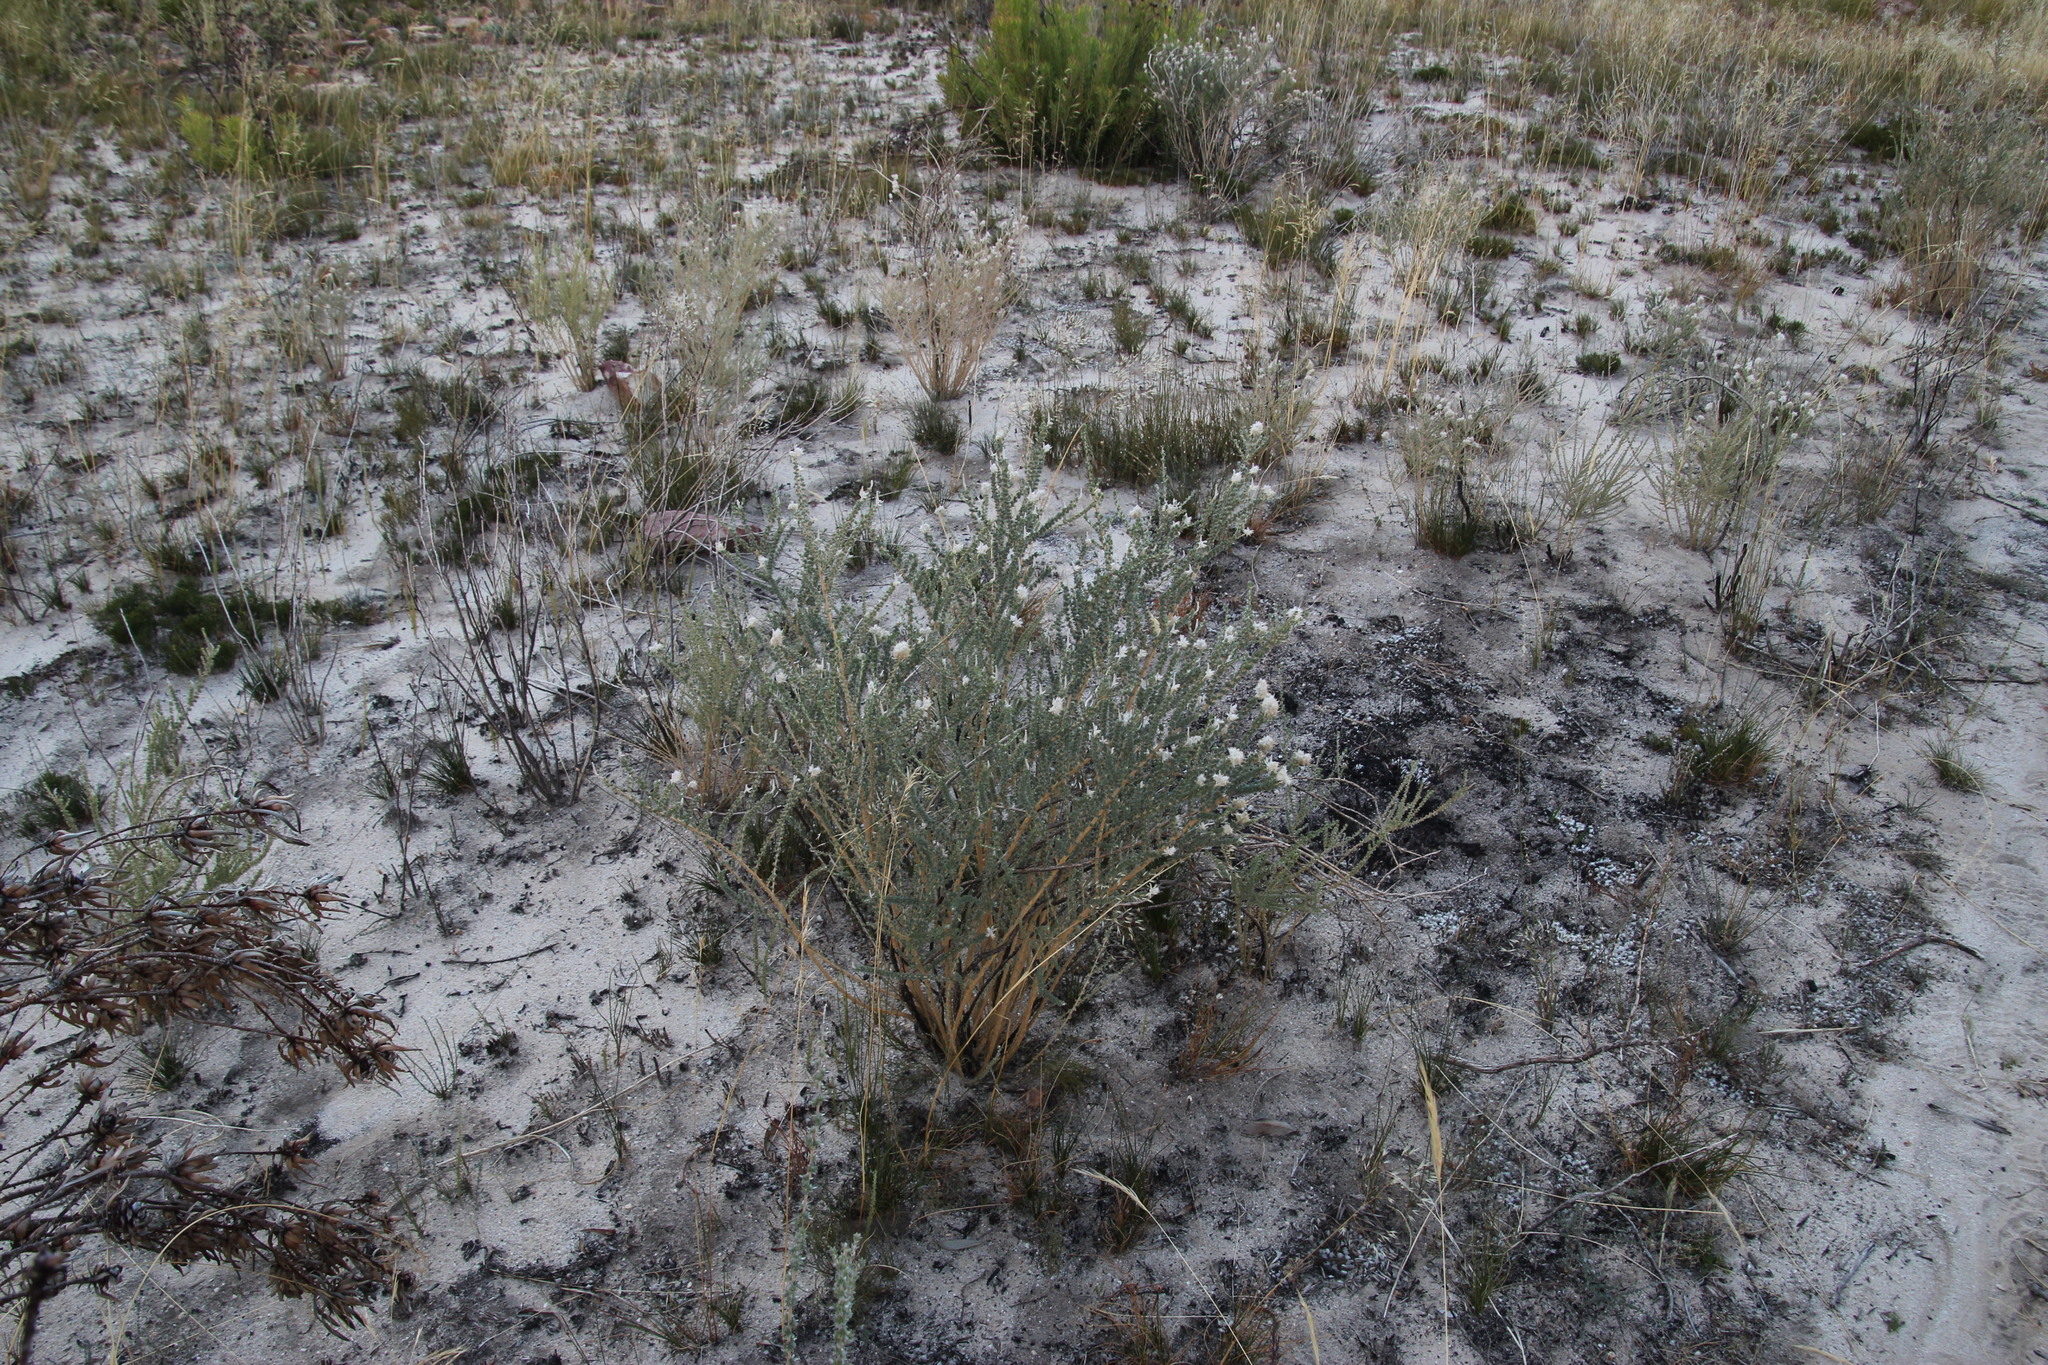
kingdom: Plantae
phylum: Tracheophyta
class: Magnoliopsida
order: Fabales
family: Fabaceae
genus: Aspalathus
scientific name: Aspalathus acocksii
